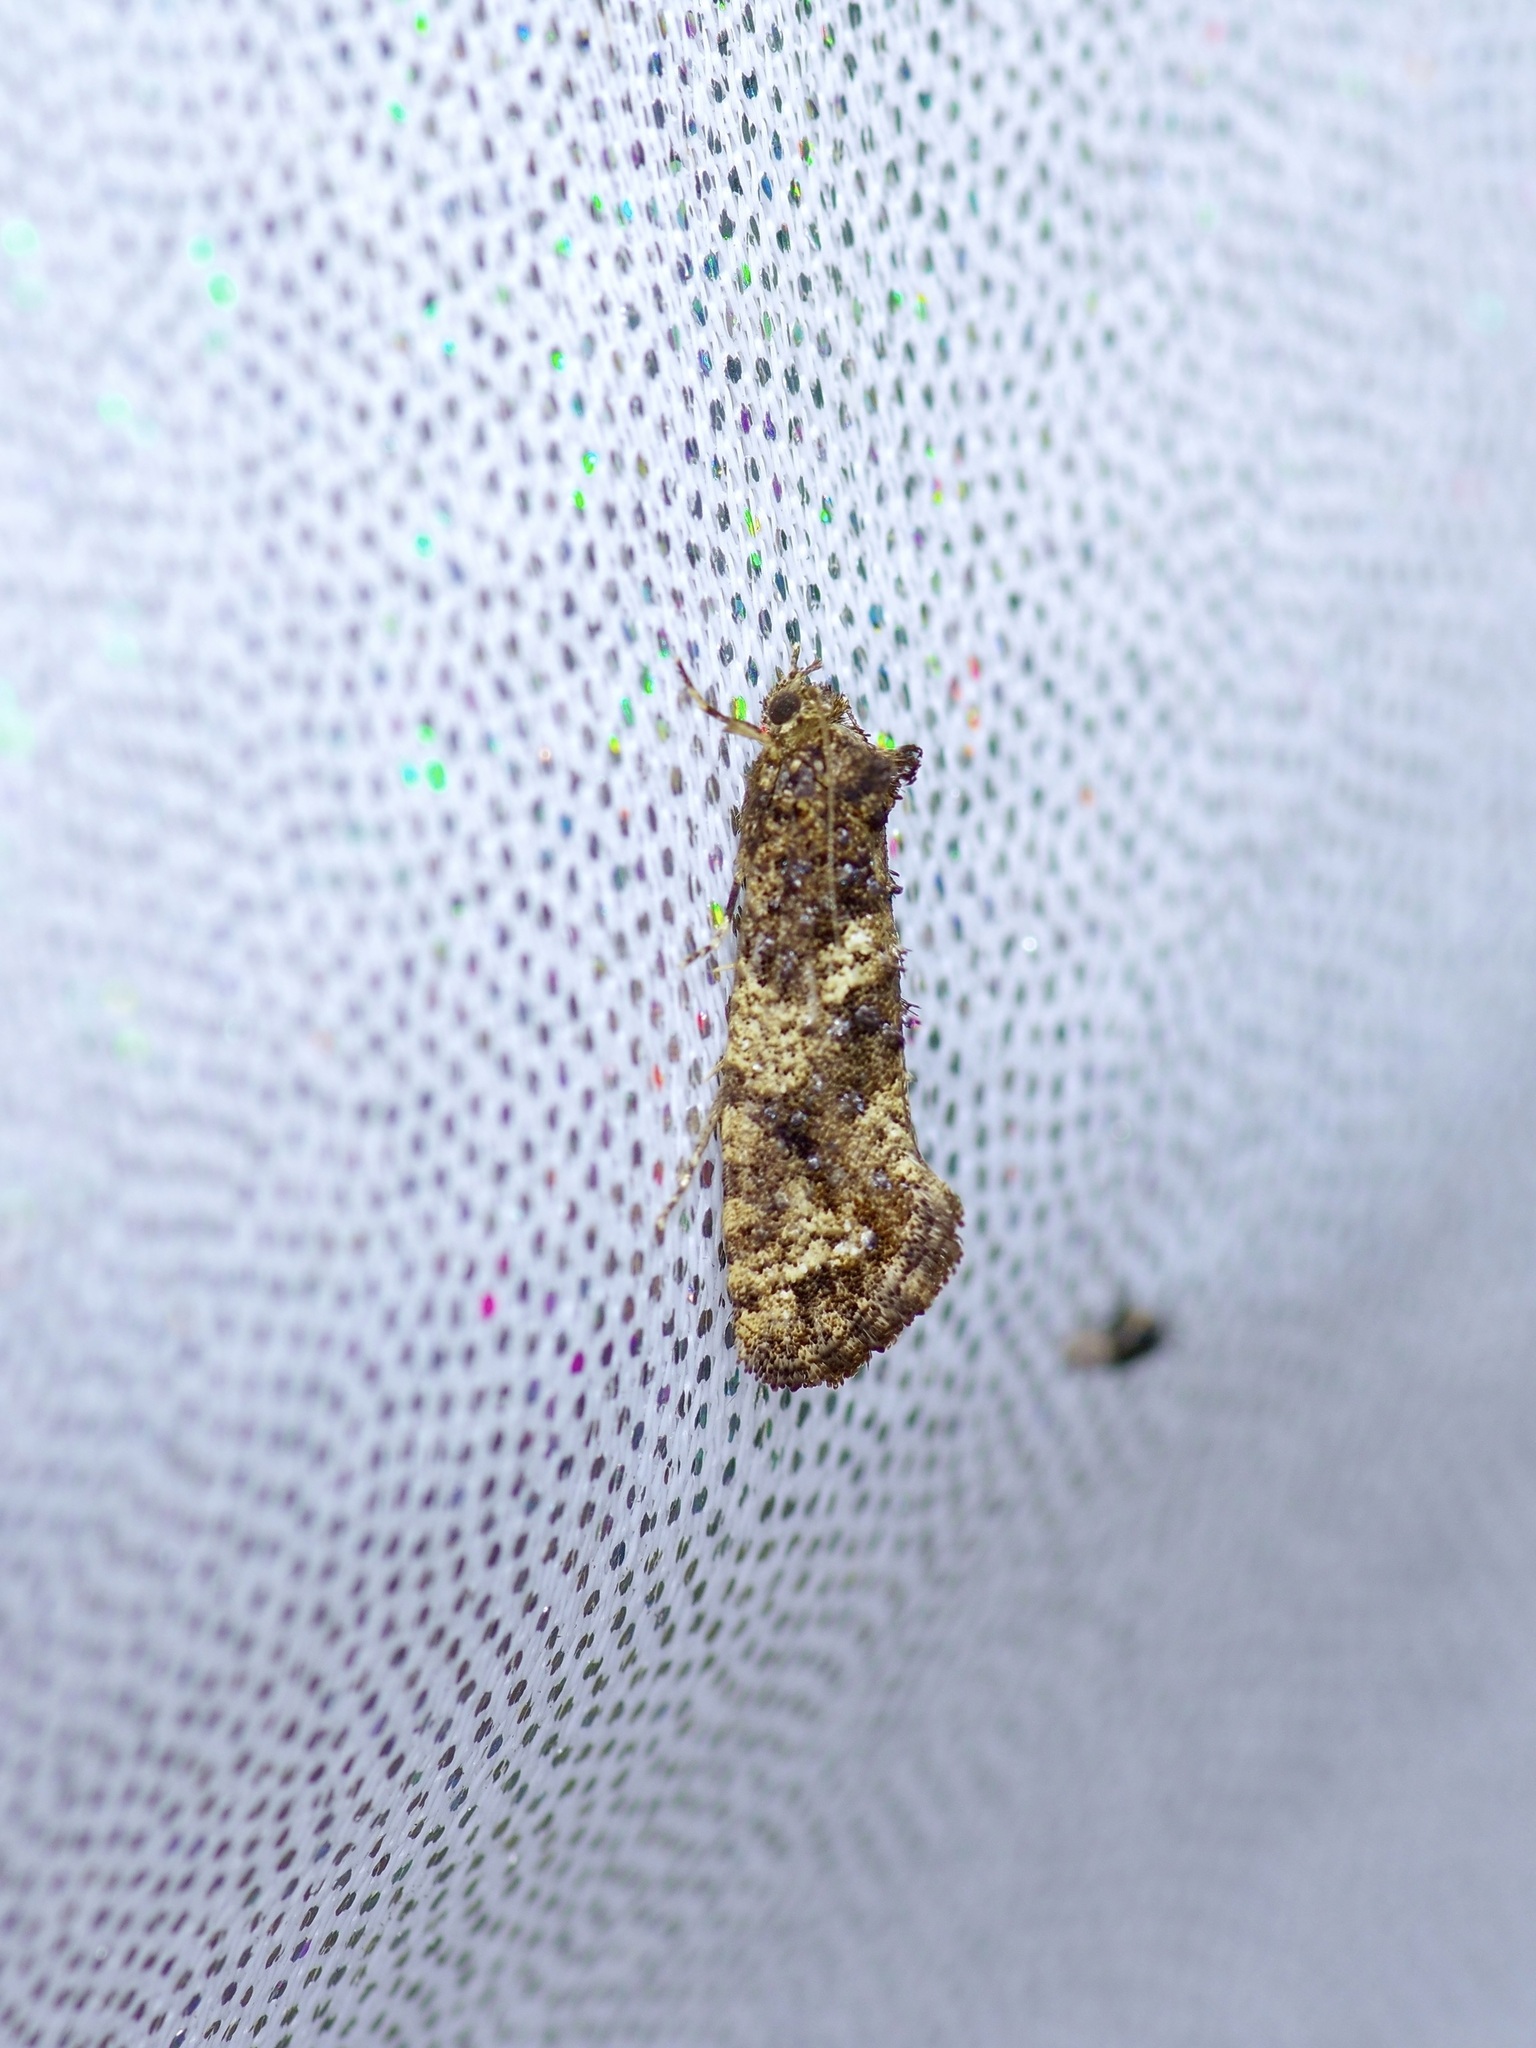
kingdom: Animalia
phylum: Arthropoda
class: Insecta
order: Lepidoptera
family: Tineidae
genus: Acrolophus
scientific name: Acrolophus cressoni
